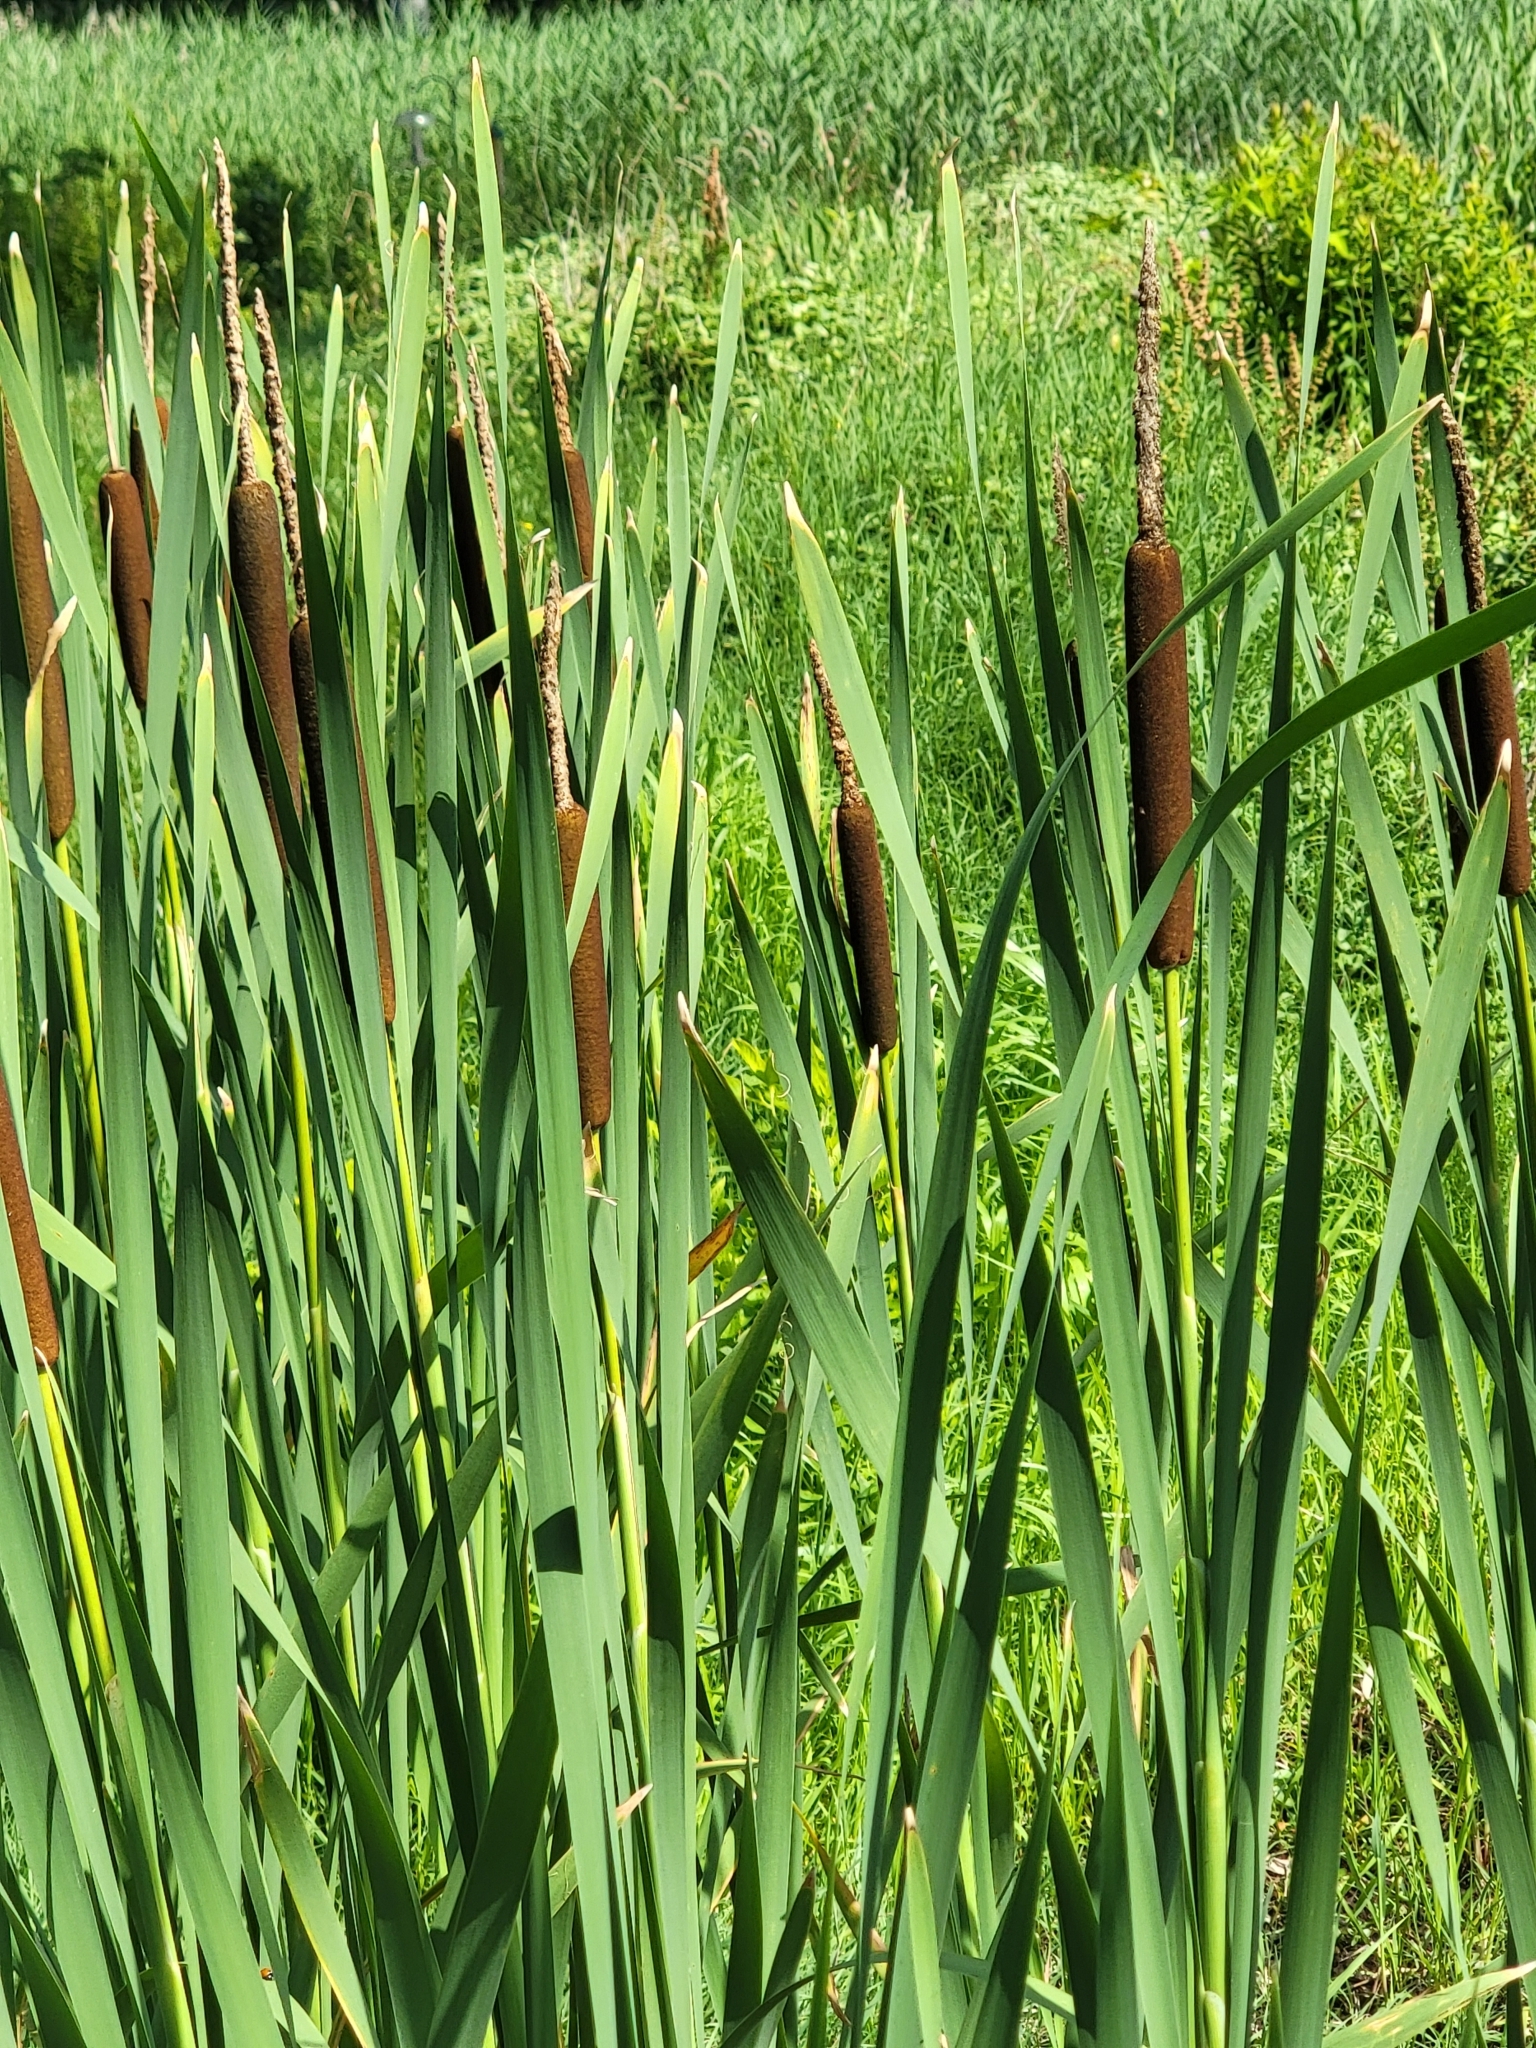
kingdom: Plantae
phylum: Tracheophyta
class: Liliopsida
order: Poales
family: Typhaceae
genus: Typha
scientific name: Typha latifolia
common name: Broadleaf cattail
